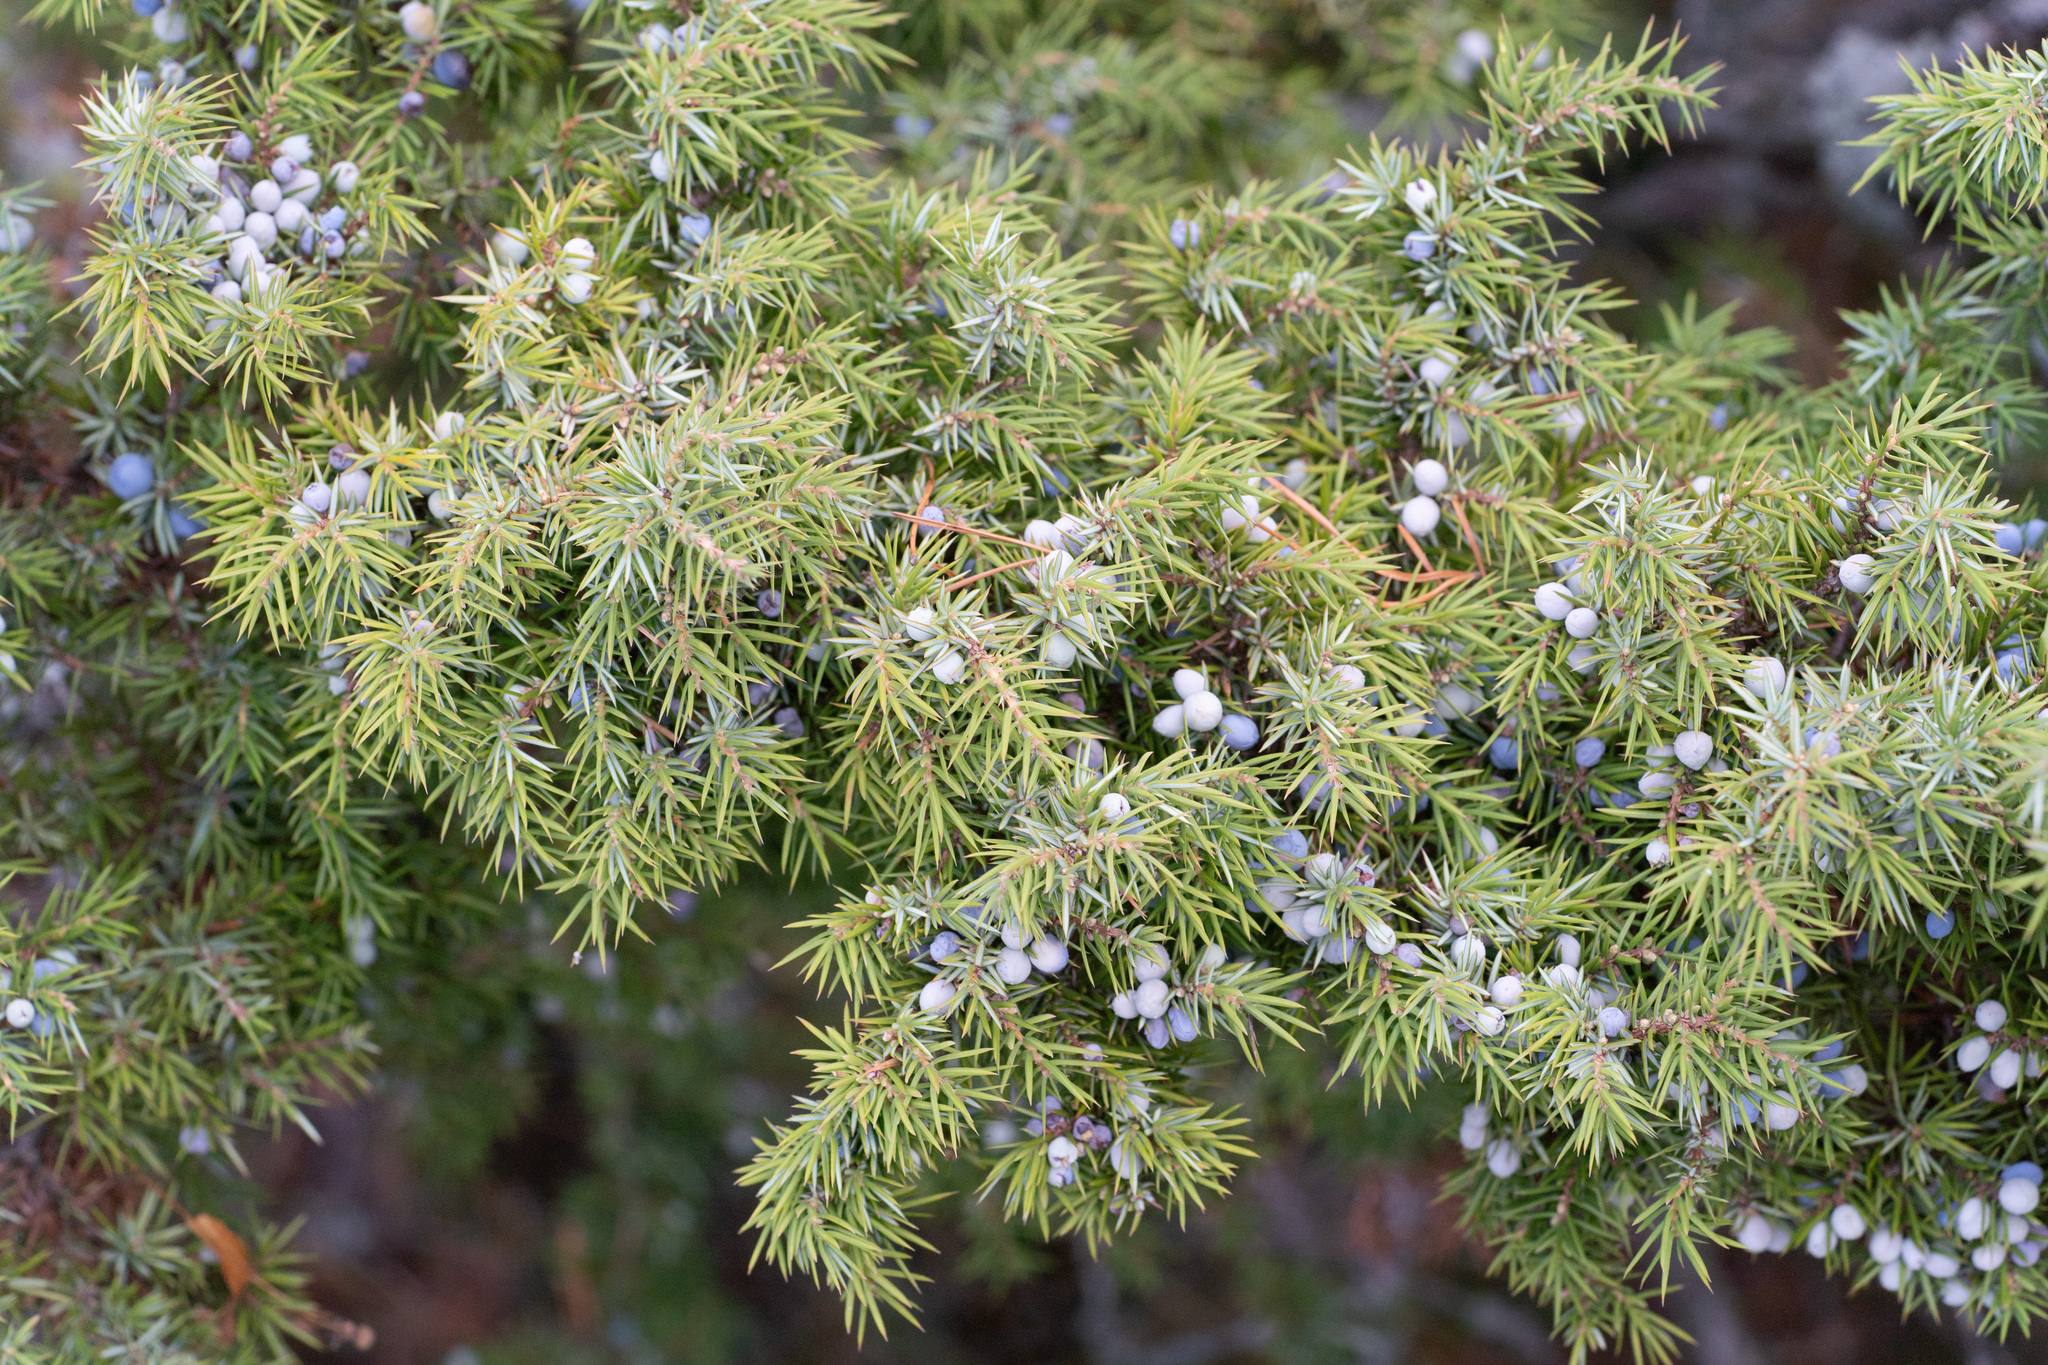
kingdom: Plantae
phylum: Tracheophyta
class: Pinopsida
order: Pinales
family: Cupressaceae
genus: Juniperus
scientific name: Juniperus communis
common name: Common juniper
